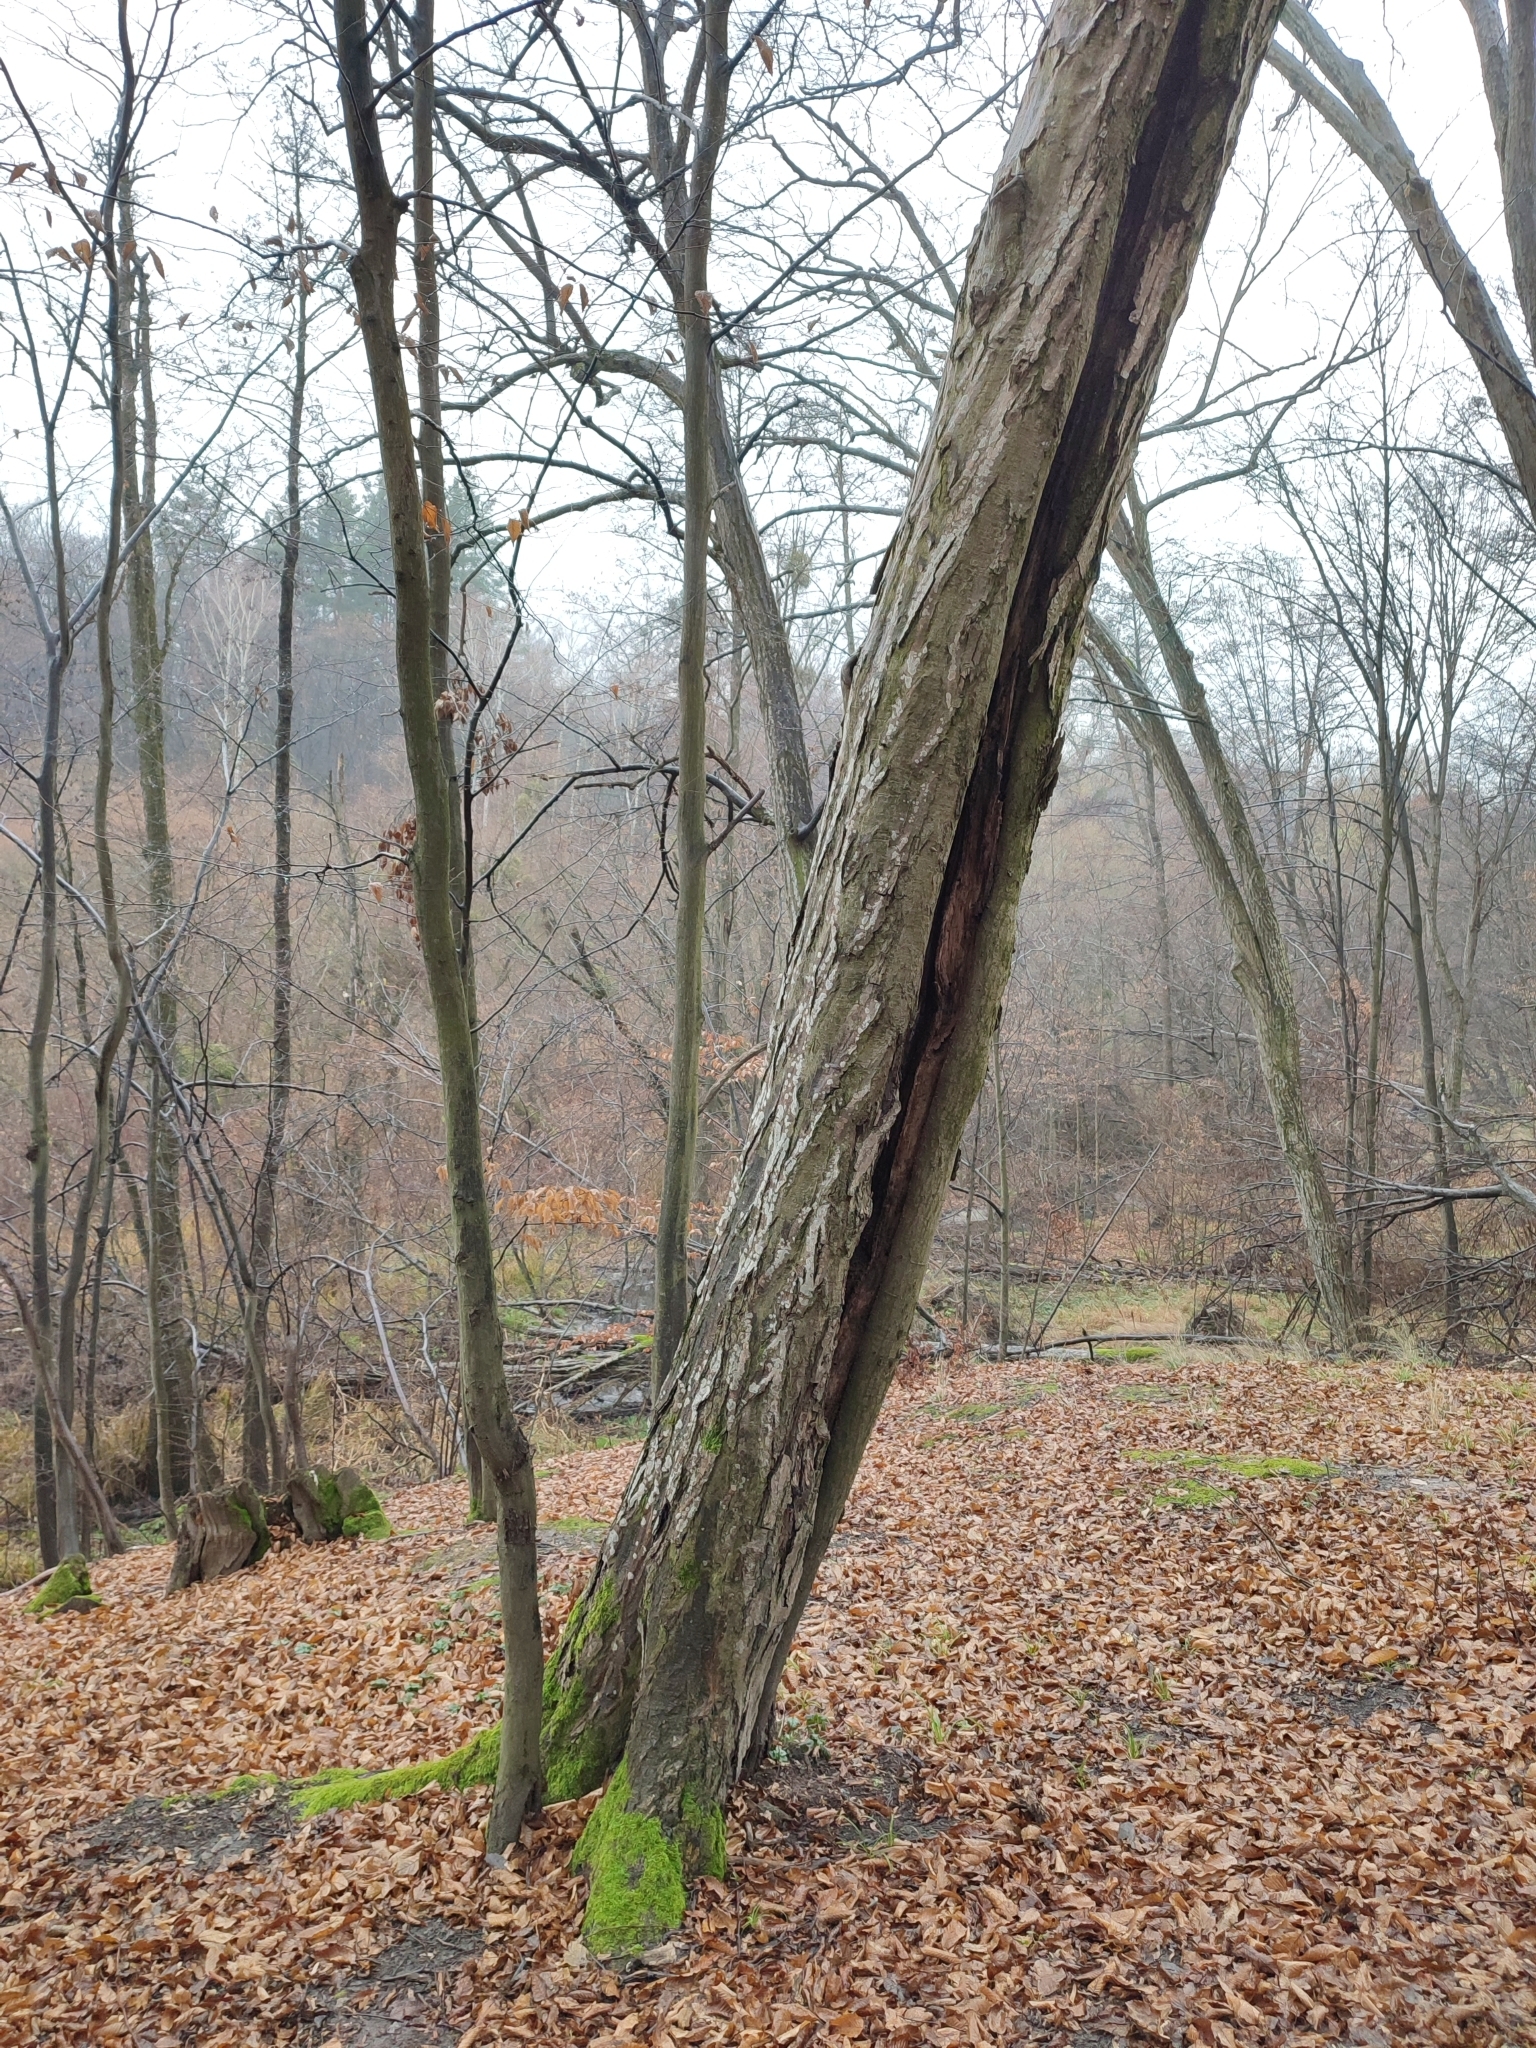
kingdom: Plantae
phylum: Tracheophyta
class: Magnoliopsida
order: Fagales
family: Betulaceae
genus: Carpinus
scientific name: Carpinus betulus
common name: Hornbeam
